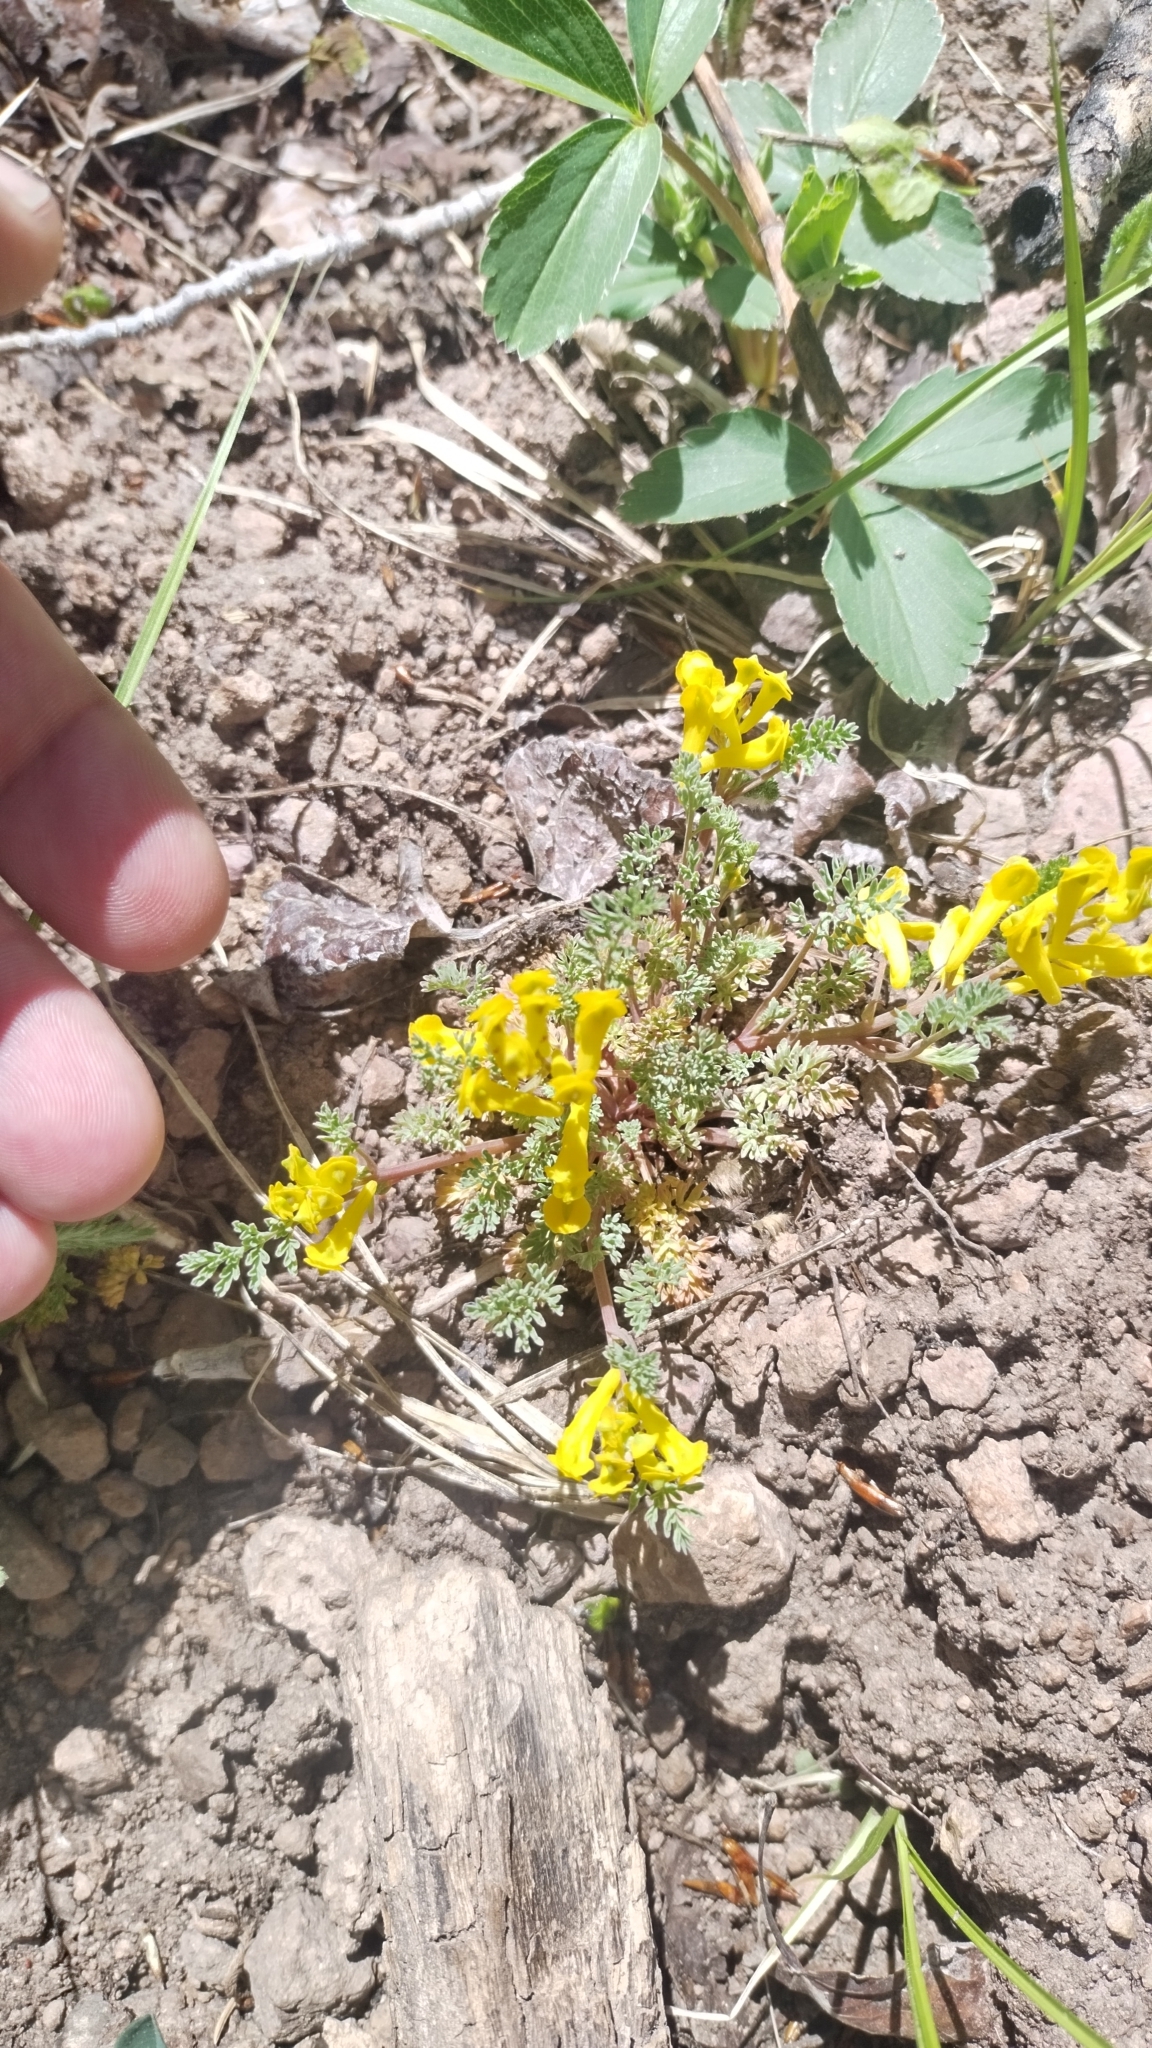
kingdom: Plantae
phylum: Tracheophyta
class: Magnoliopsida
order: Ranunculales
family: Papaveraceae
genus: Corydalis
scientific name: Corydalis aurea
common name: Golden corydalis
